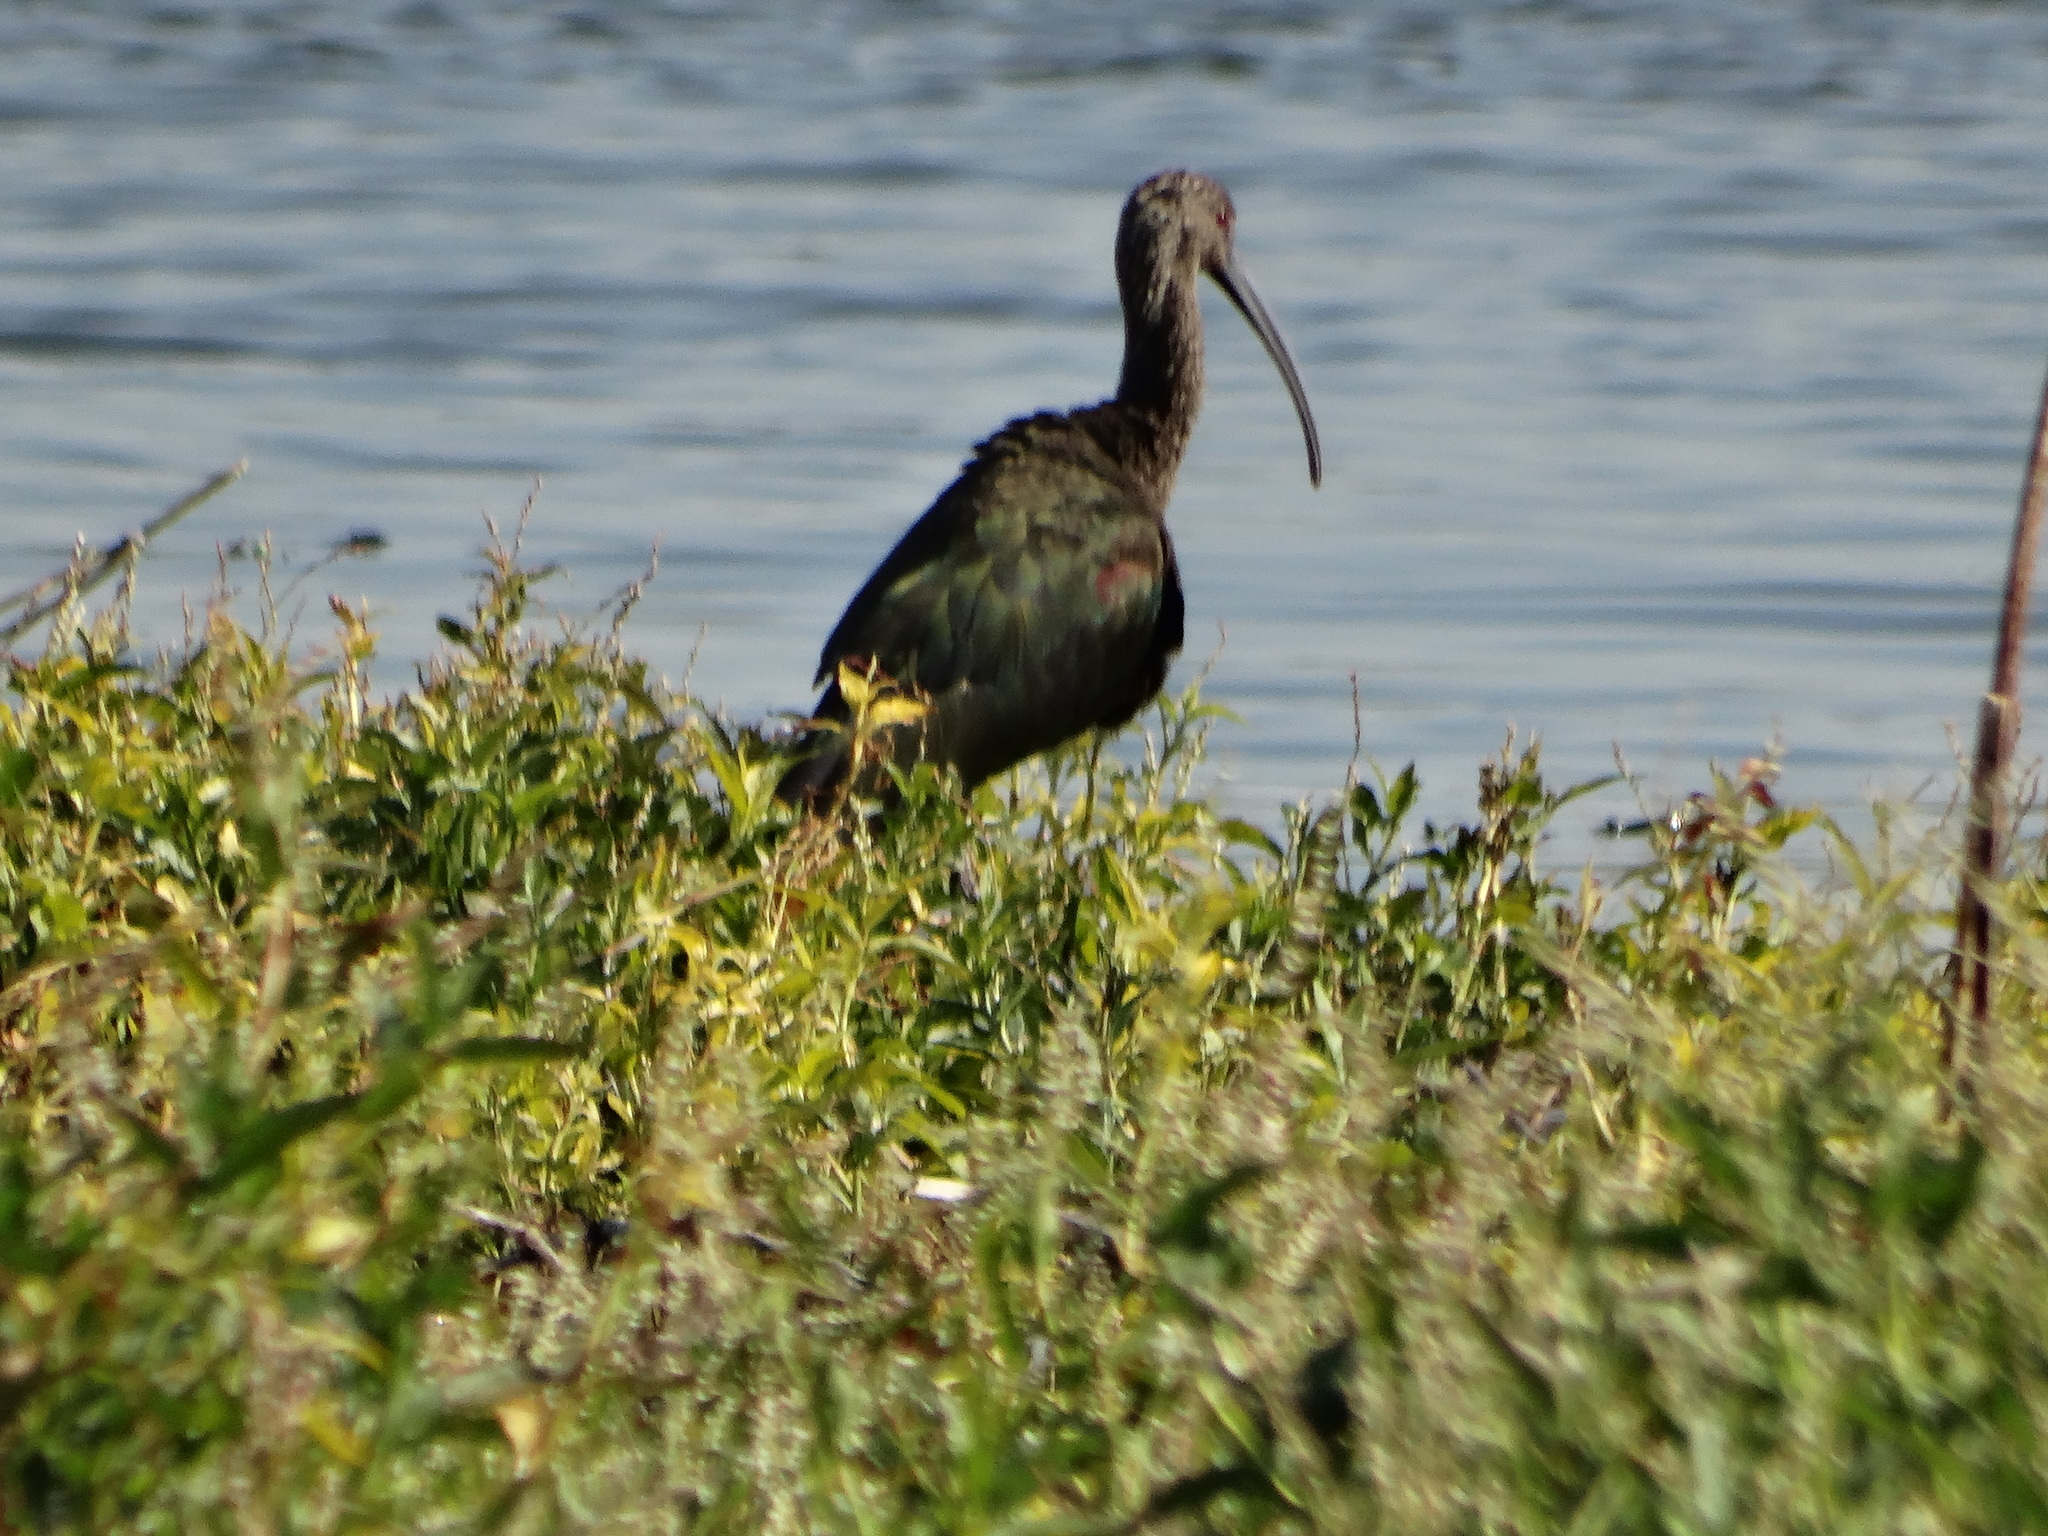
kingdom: Animalia
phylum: Chordata
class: Aves
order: Pelecaniformes
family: Threskiornithidae
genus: Plegadis
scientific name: Plegadis chihi
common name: White-faced ibis
